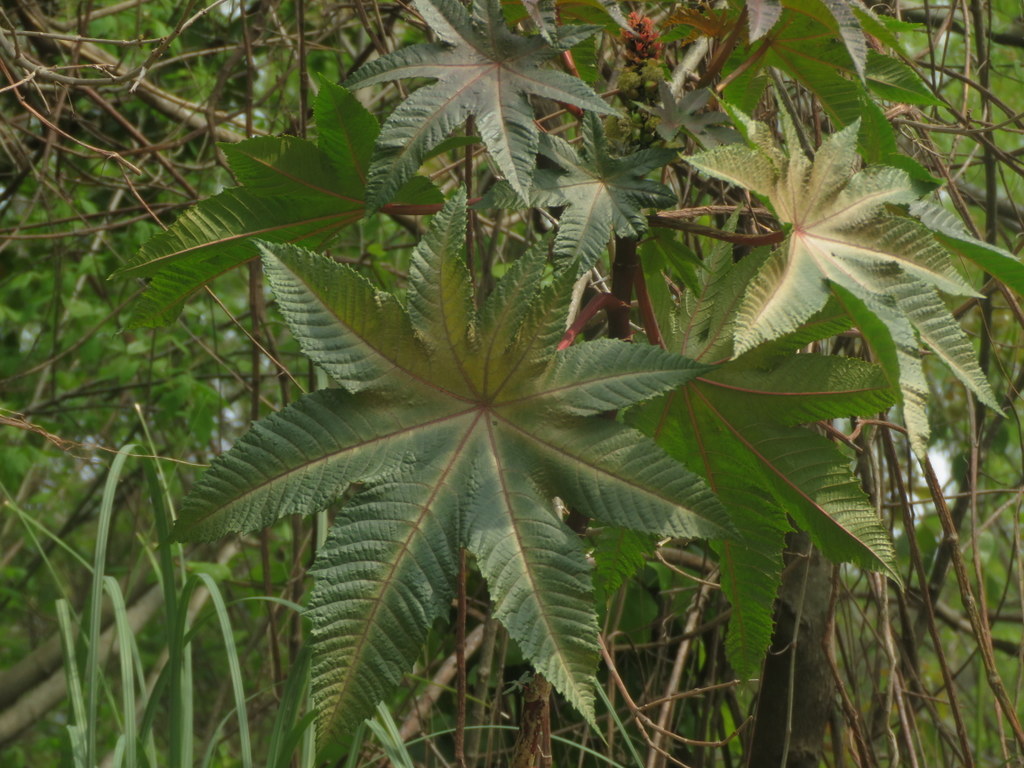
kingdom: Plantae
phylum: Tracheophyta
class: Magnoliopsida
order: Malpighiales
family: Euphorbiaceae
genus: Ricinus
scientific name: Ricinus communis
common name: Castor-oil-plant
